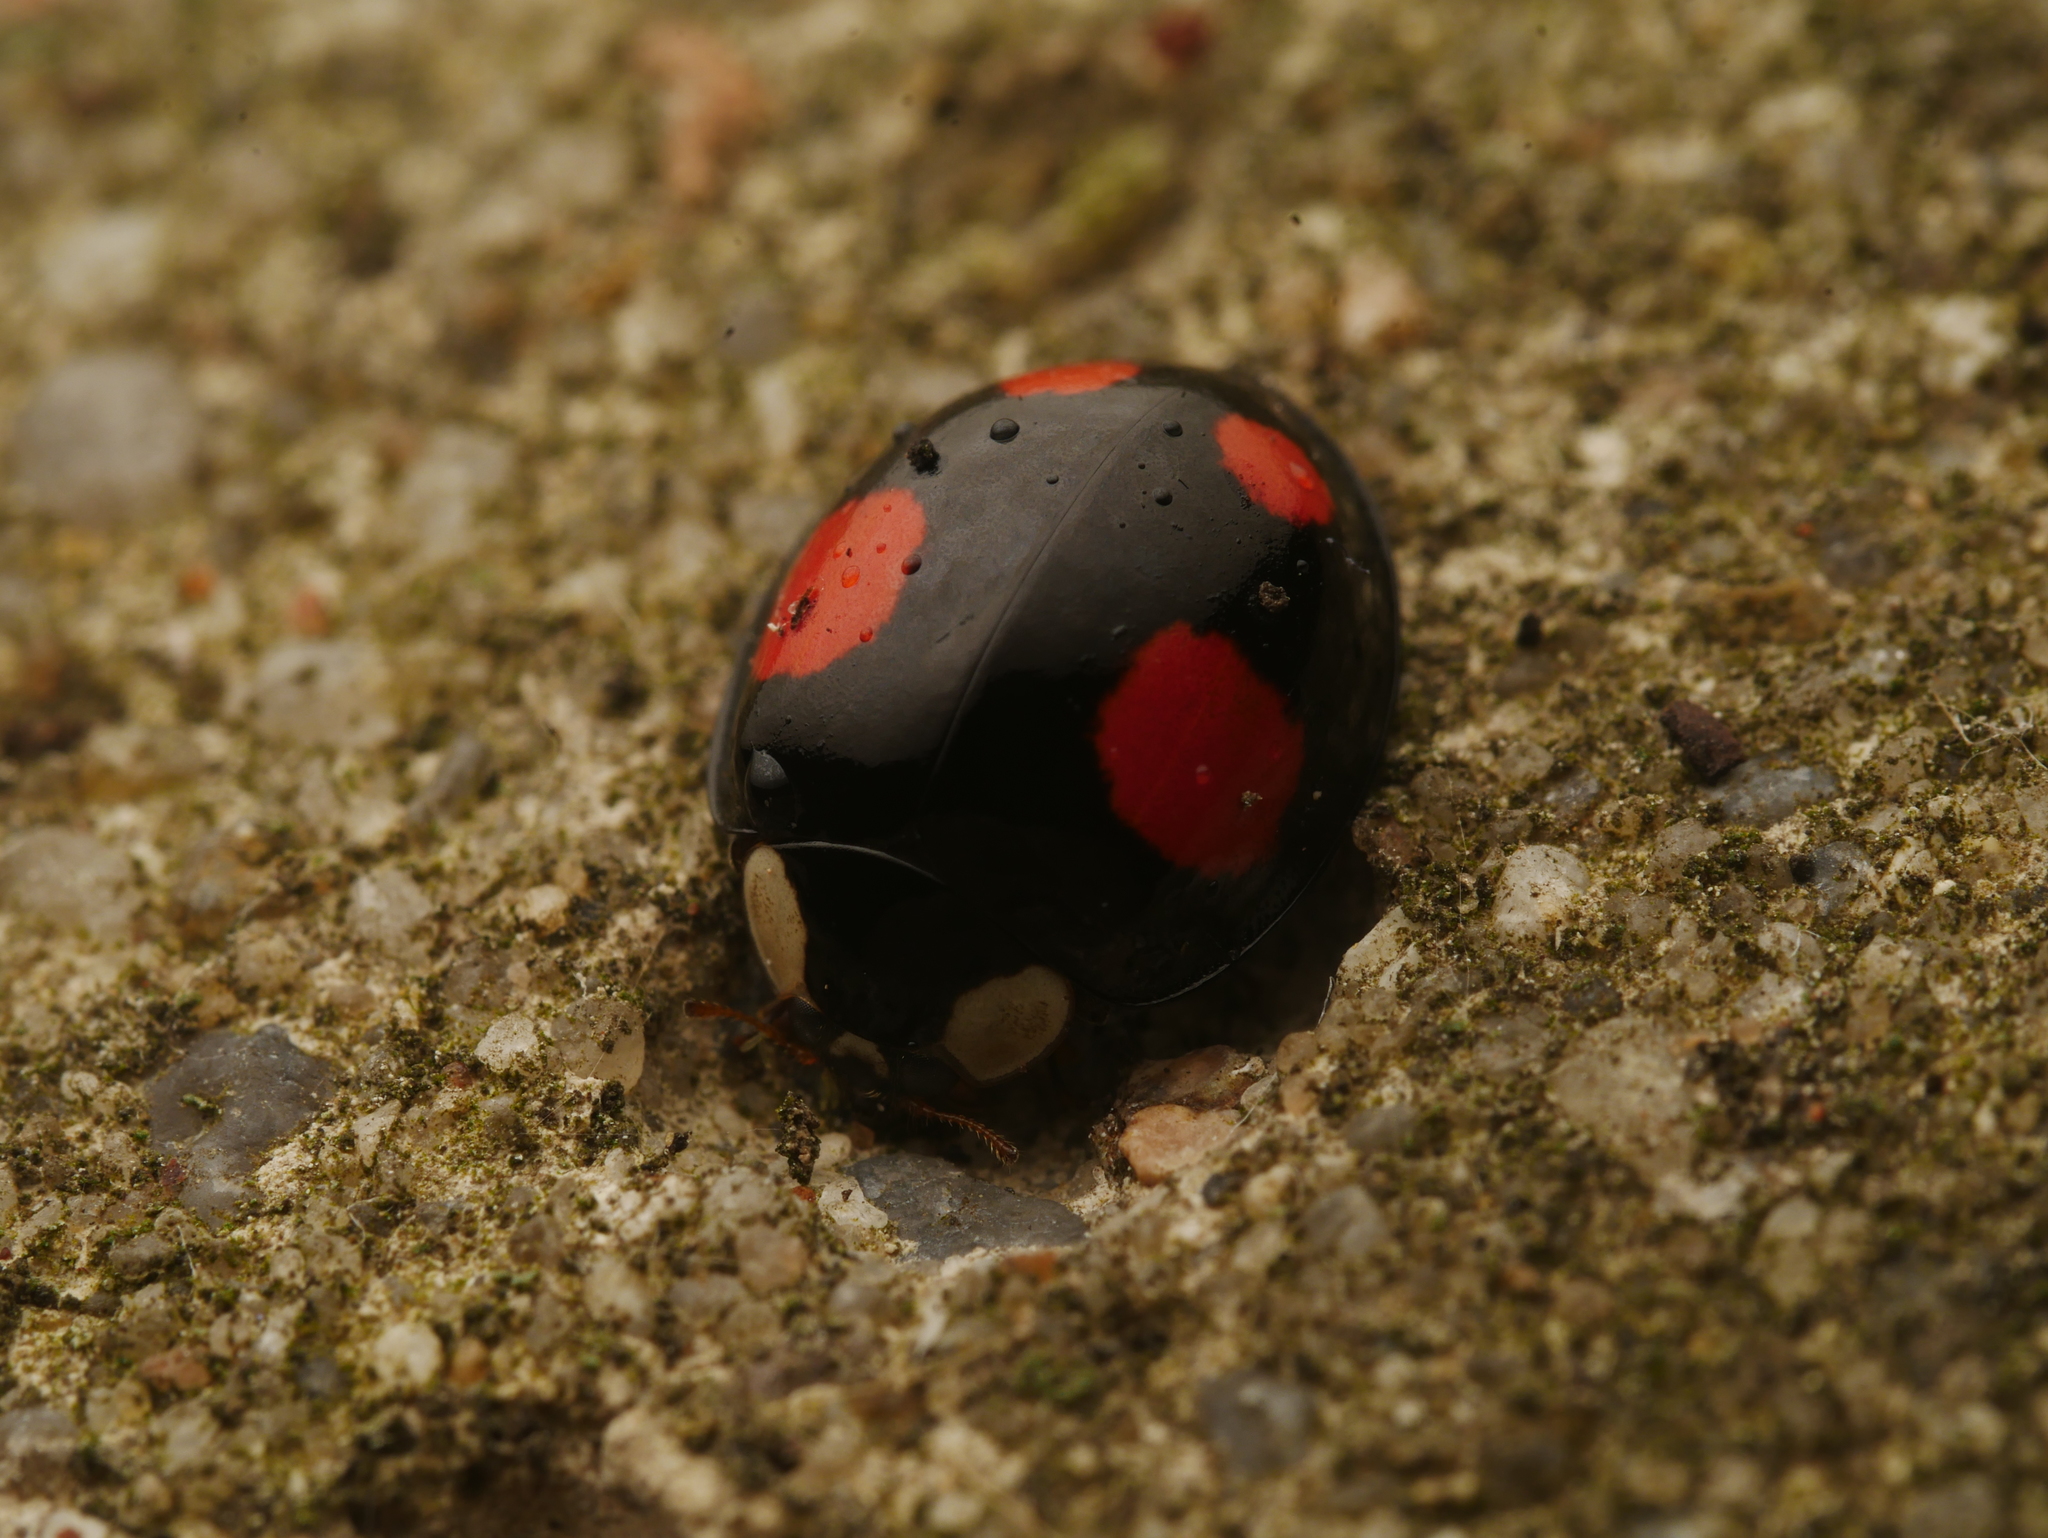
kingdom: Animalia
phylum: Arthropoda
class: Insecta
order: Coleoptera
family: Coccinellidae
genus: Harmonia
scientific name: Harmonia axyridis
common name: Harlequin ladybird
